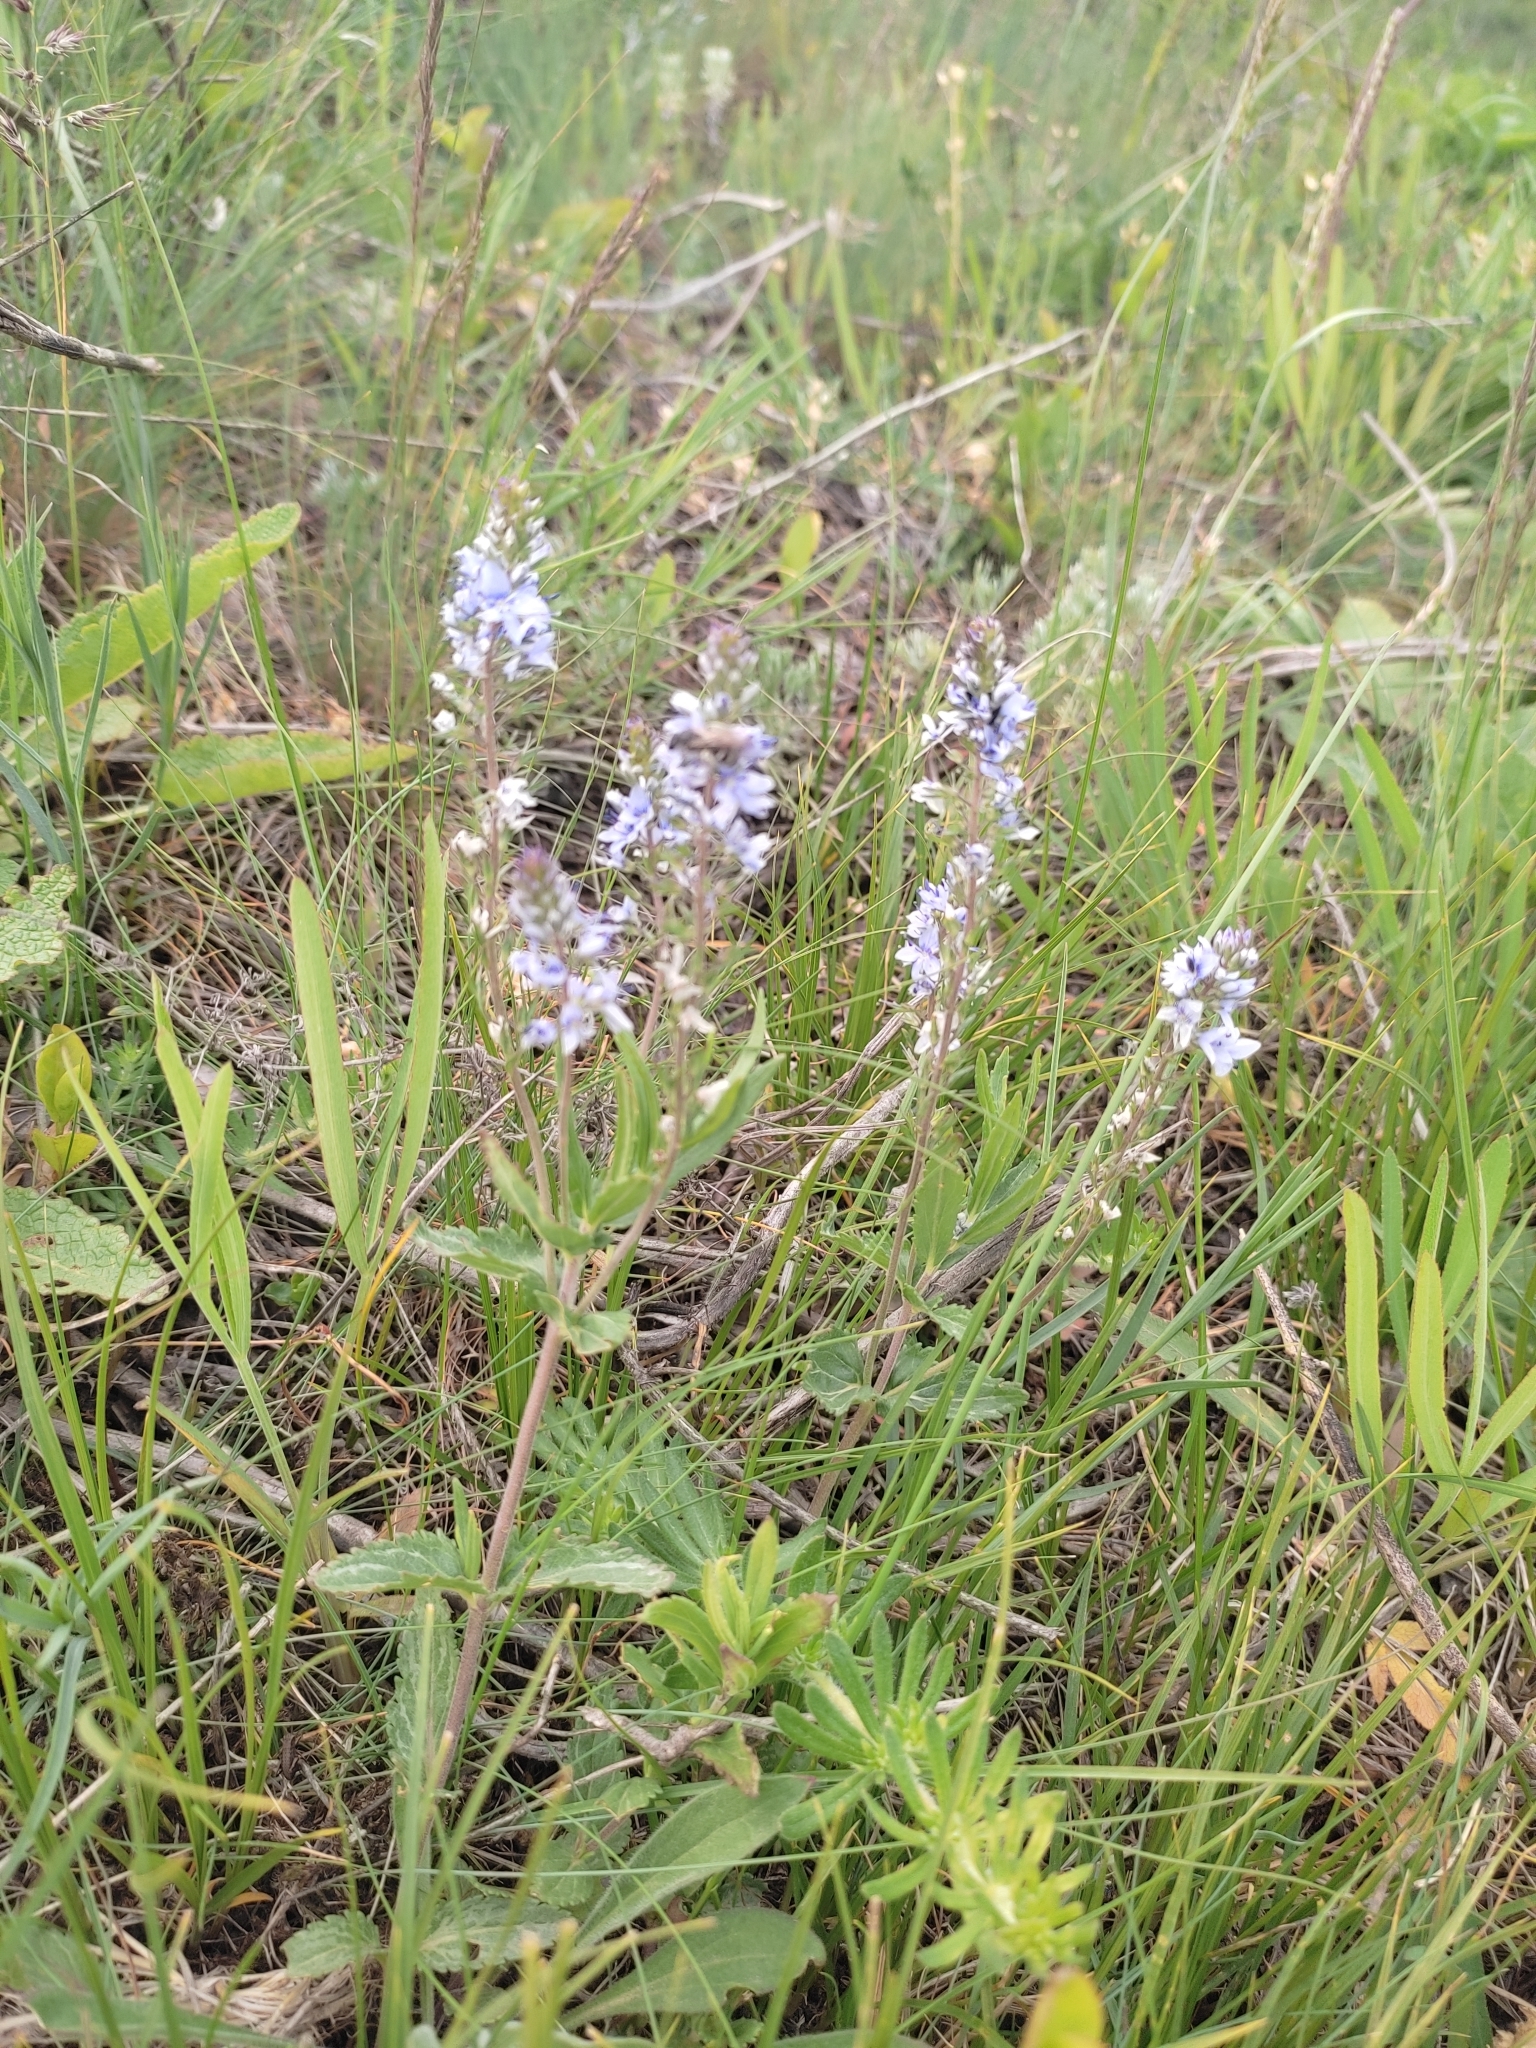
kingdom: Plantae
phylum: Tracheophyta
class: Magnoliopsida
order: Lamiales
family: Plantaginaceae
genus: Veronica
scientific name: Veronica prostrata
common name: Prostrate speedwell
